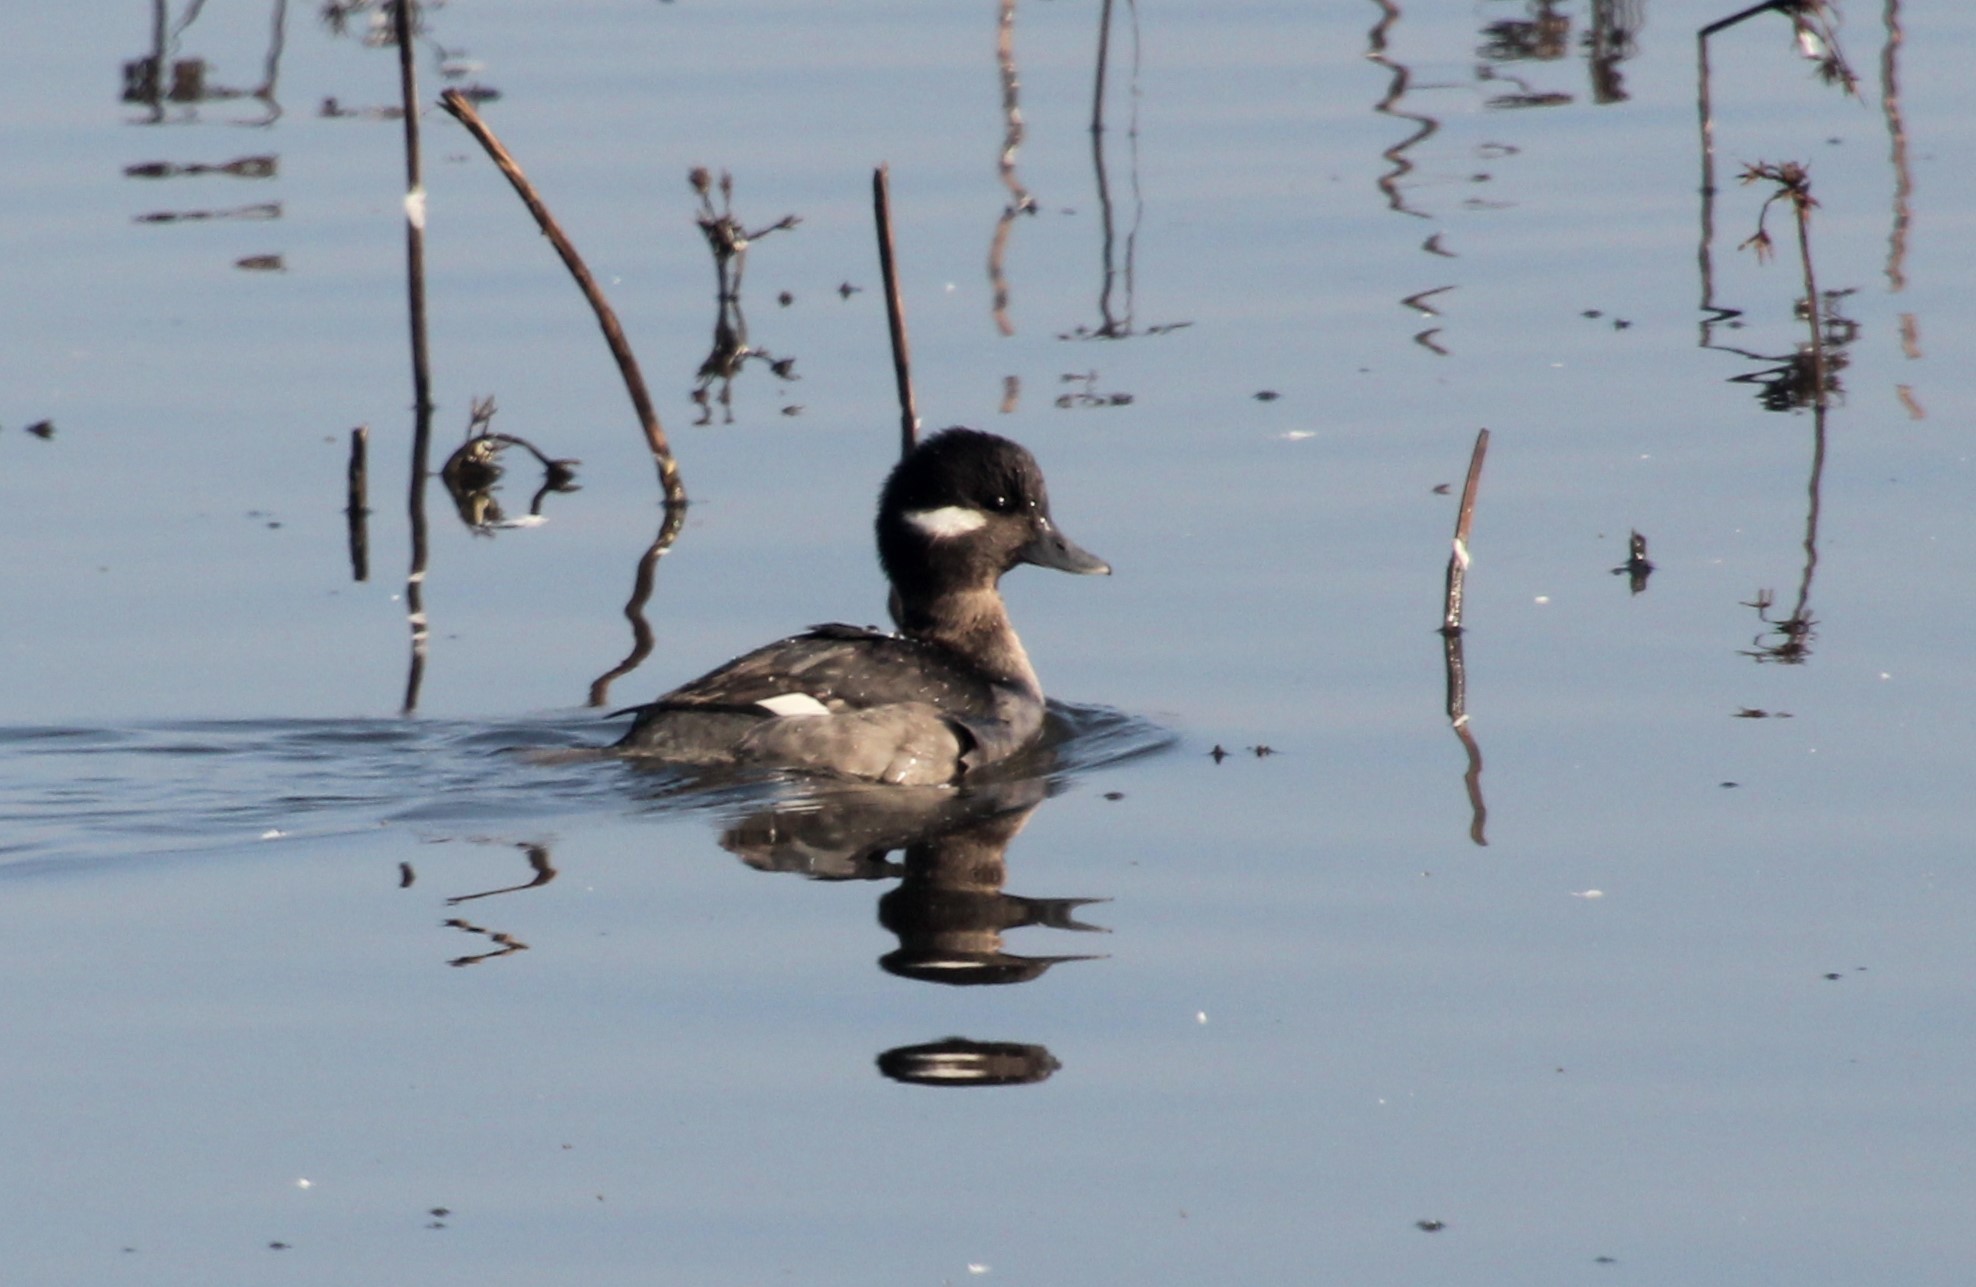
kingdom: Animalia
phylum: Chordata
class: Aves
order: Anseriformes
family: Anatidae
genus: Bucephala
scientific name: Bucephala albeola
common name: Bufflehead
